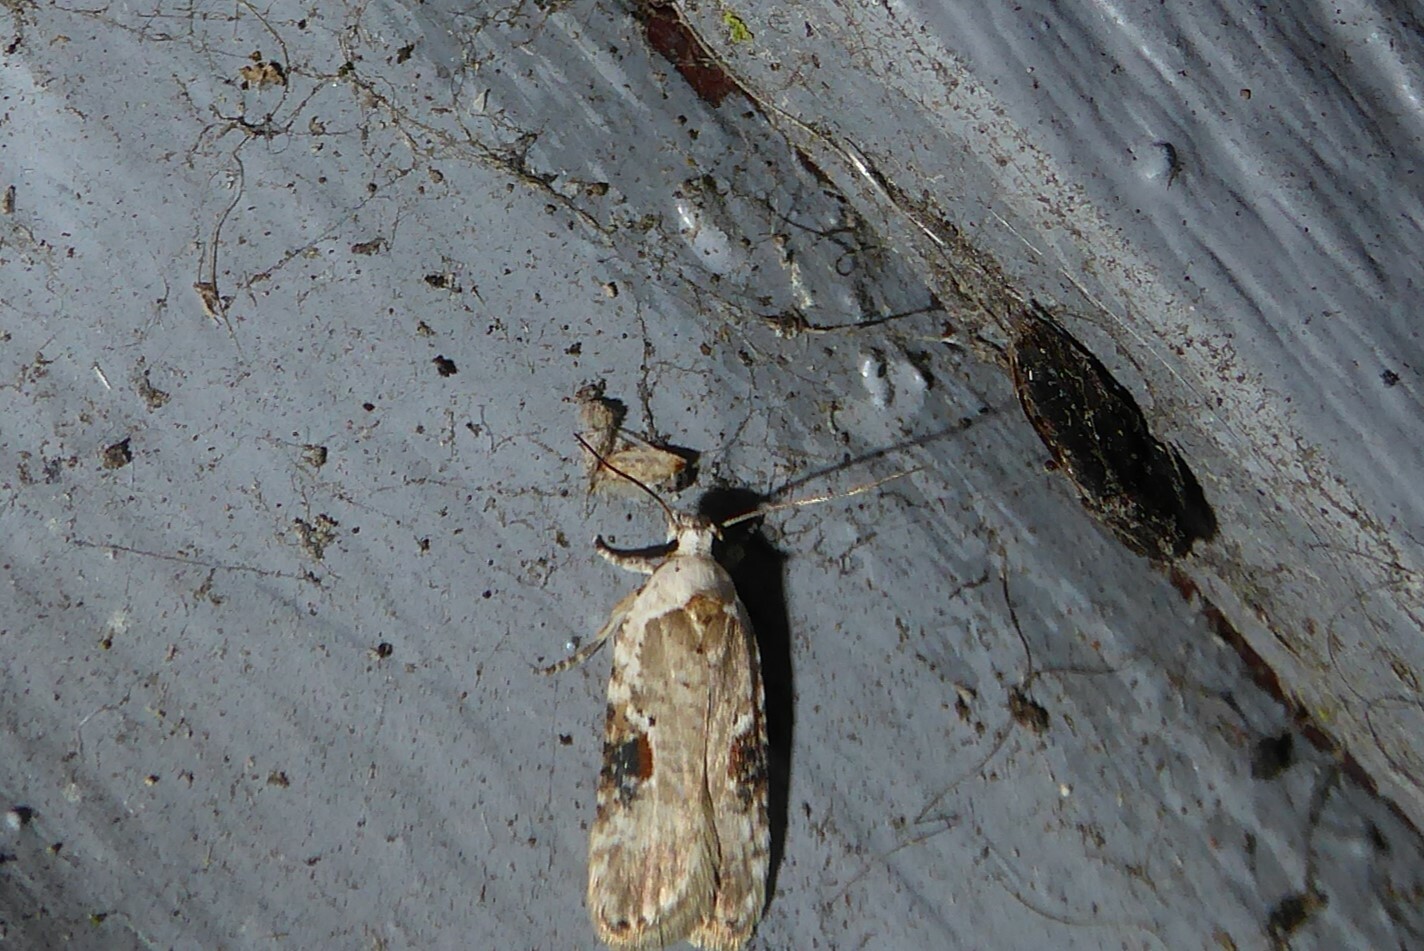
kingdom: Animalia
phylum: Arthropoda
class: Insecta
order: Lepidoptera
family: Depressariidae
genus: Agonopterix
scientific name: Agonopterix alstroemeriana
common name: Moth
